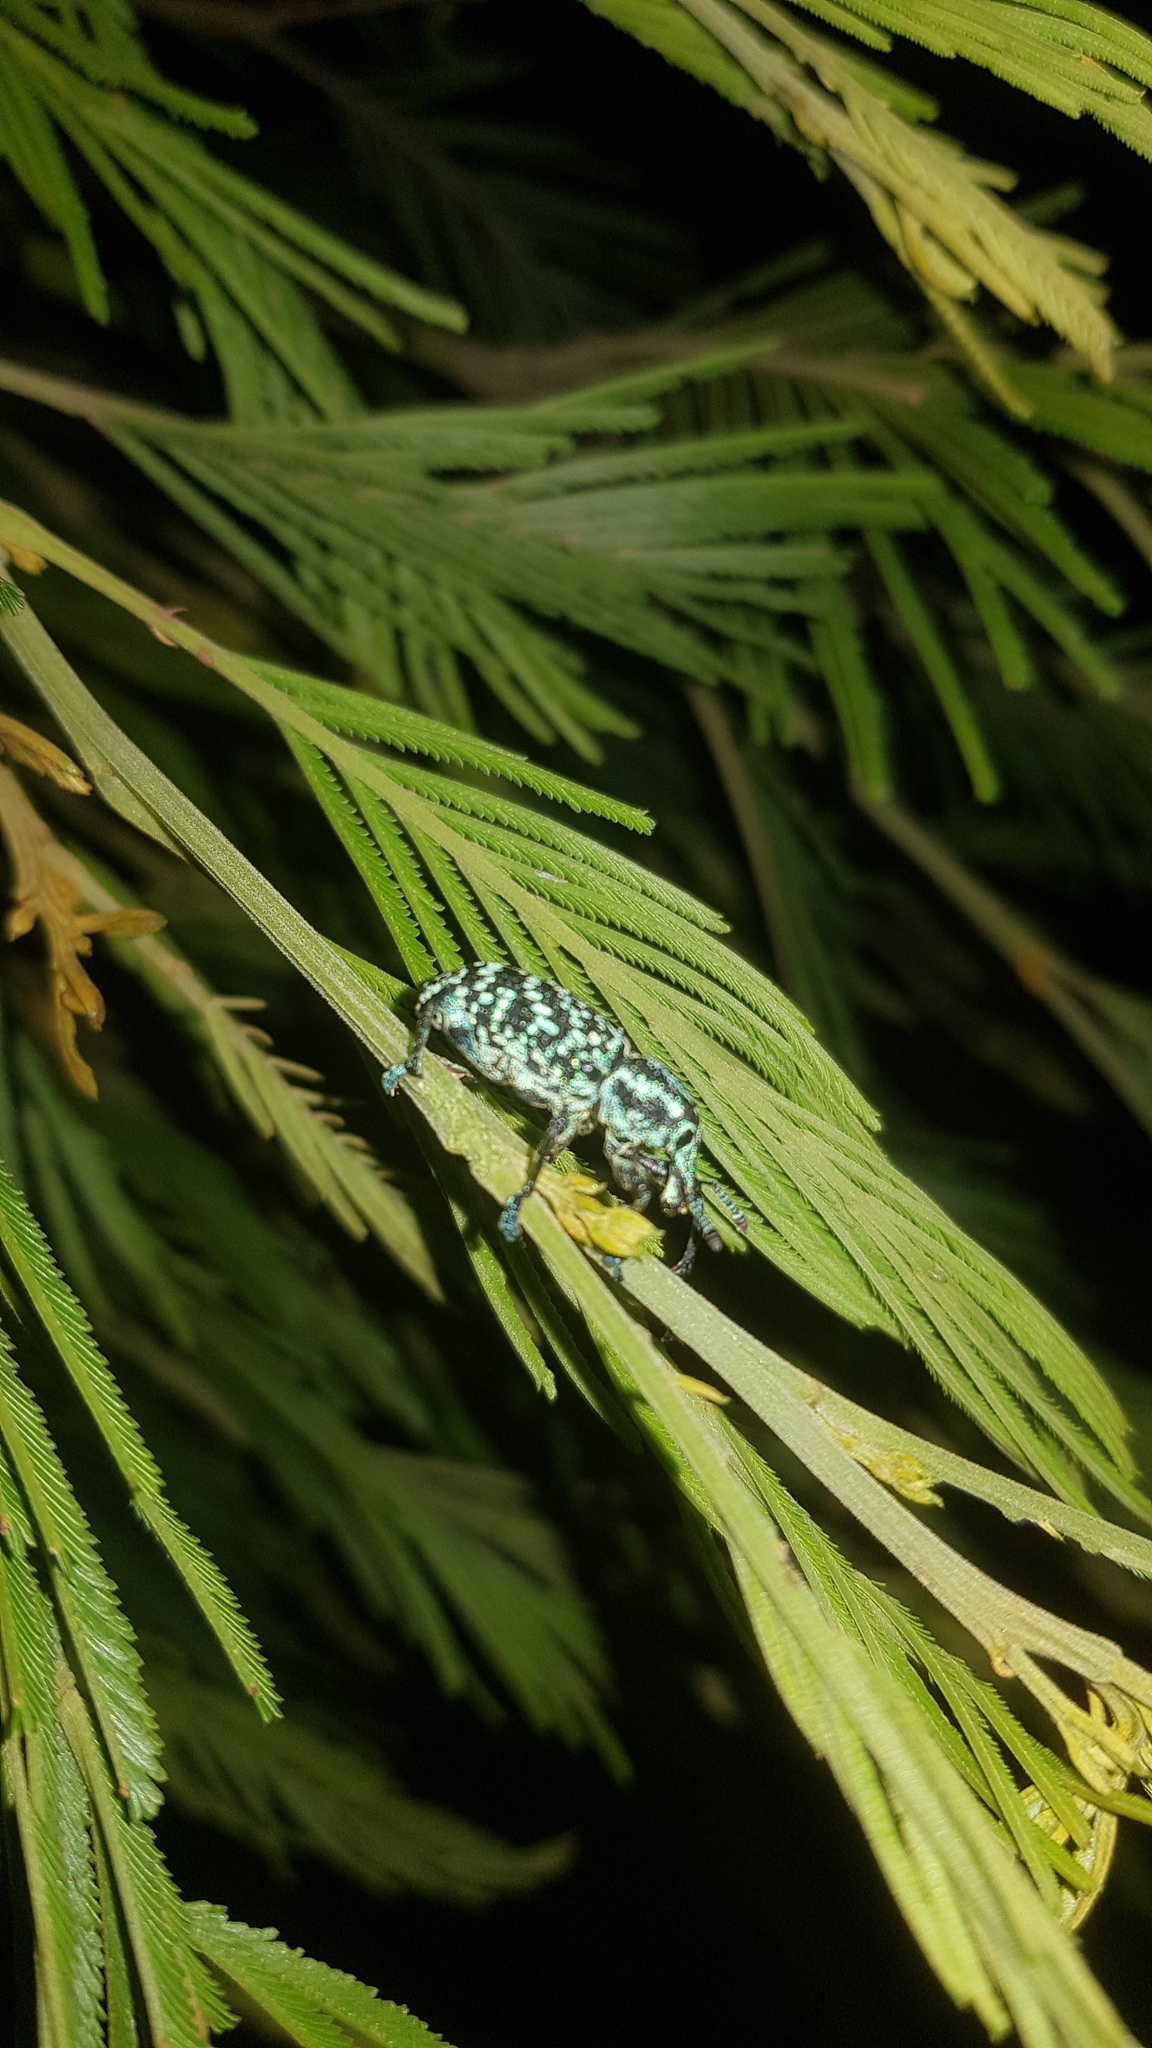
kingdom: Animalia
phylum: Arthropoda
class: Insecta
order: Coleoptera
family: Curculionidae
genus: Chrysolopus
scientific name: Chrysolopus spectabilis
